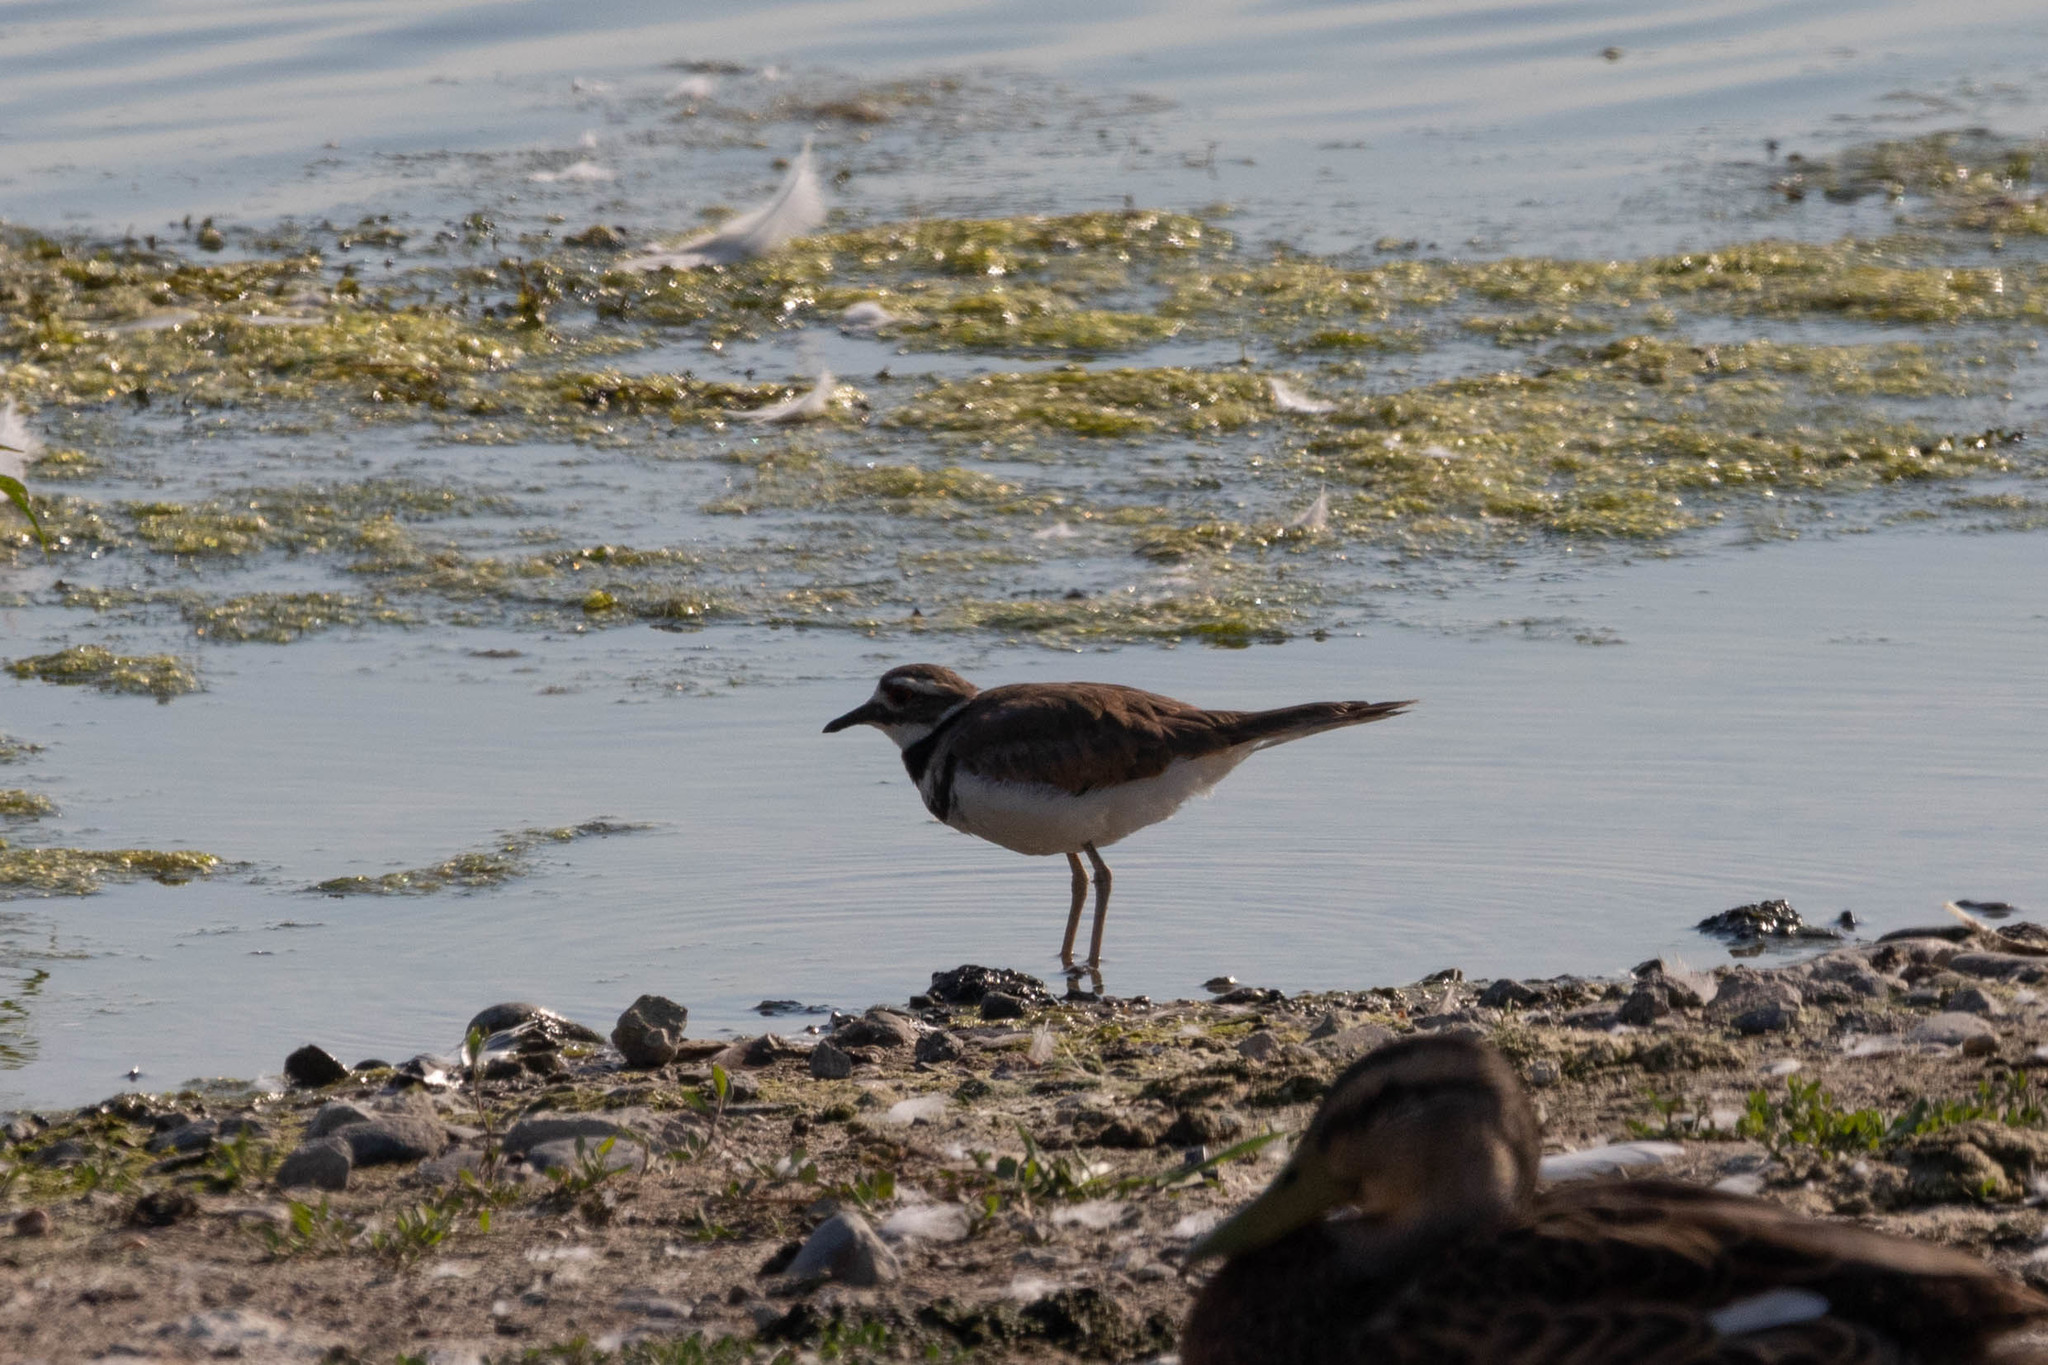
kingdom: Animalia
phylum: Chordata
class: Aves
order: Charadriiformes
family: Charadriidae
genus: Charadrius
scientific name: Charadrius vociferus
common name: Killdeer
